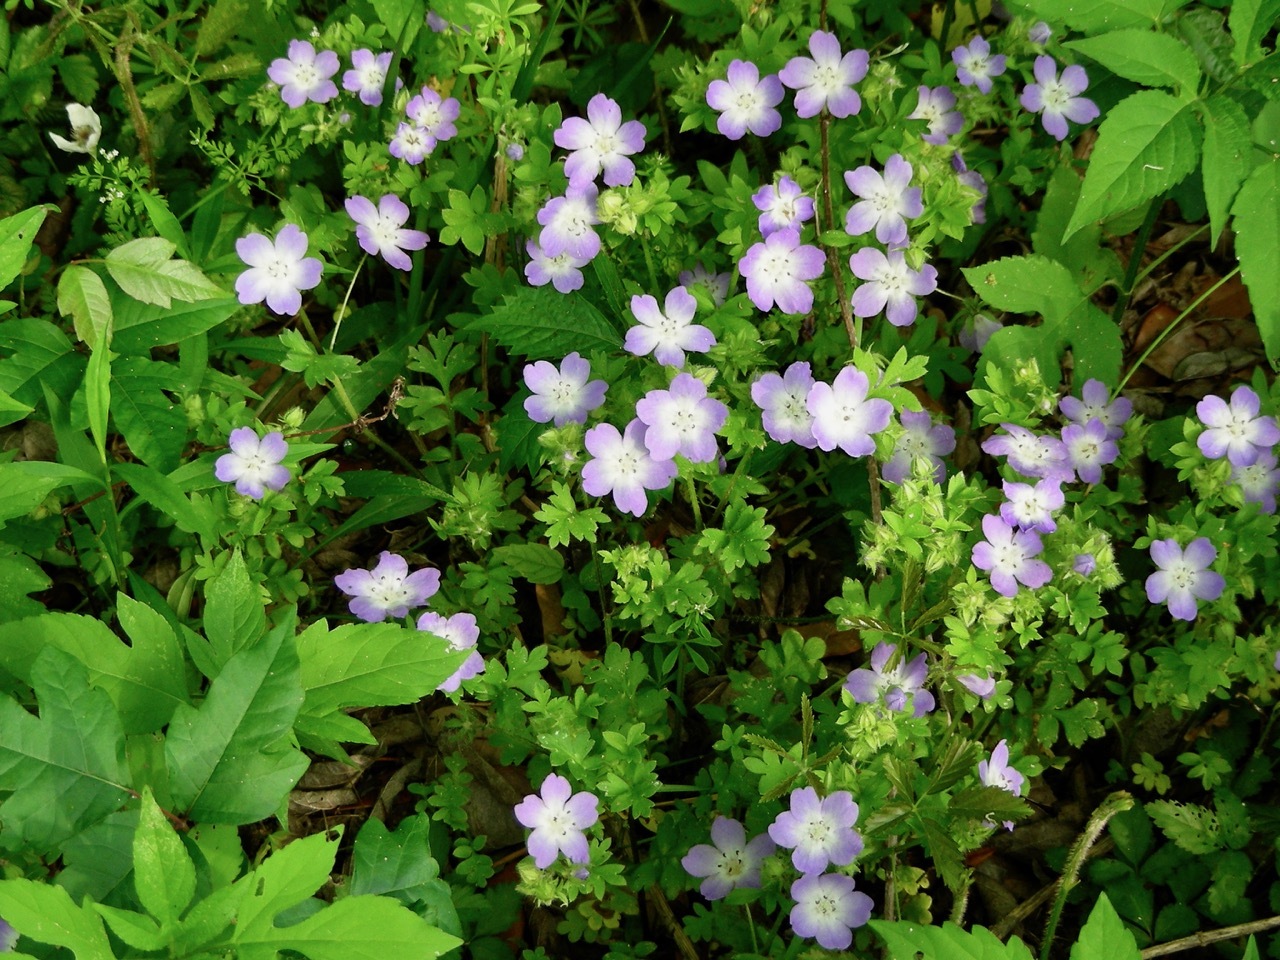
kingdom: Plantae
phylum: Tracheophyta
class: Magnoliopsida
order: Boraginales
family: Hydrophyllaceae
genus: Nemophila
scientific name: Nemophila phacelioides
